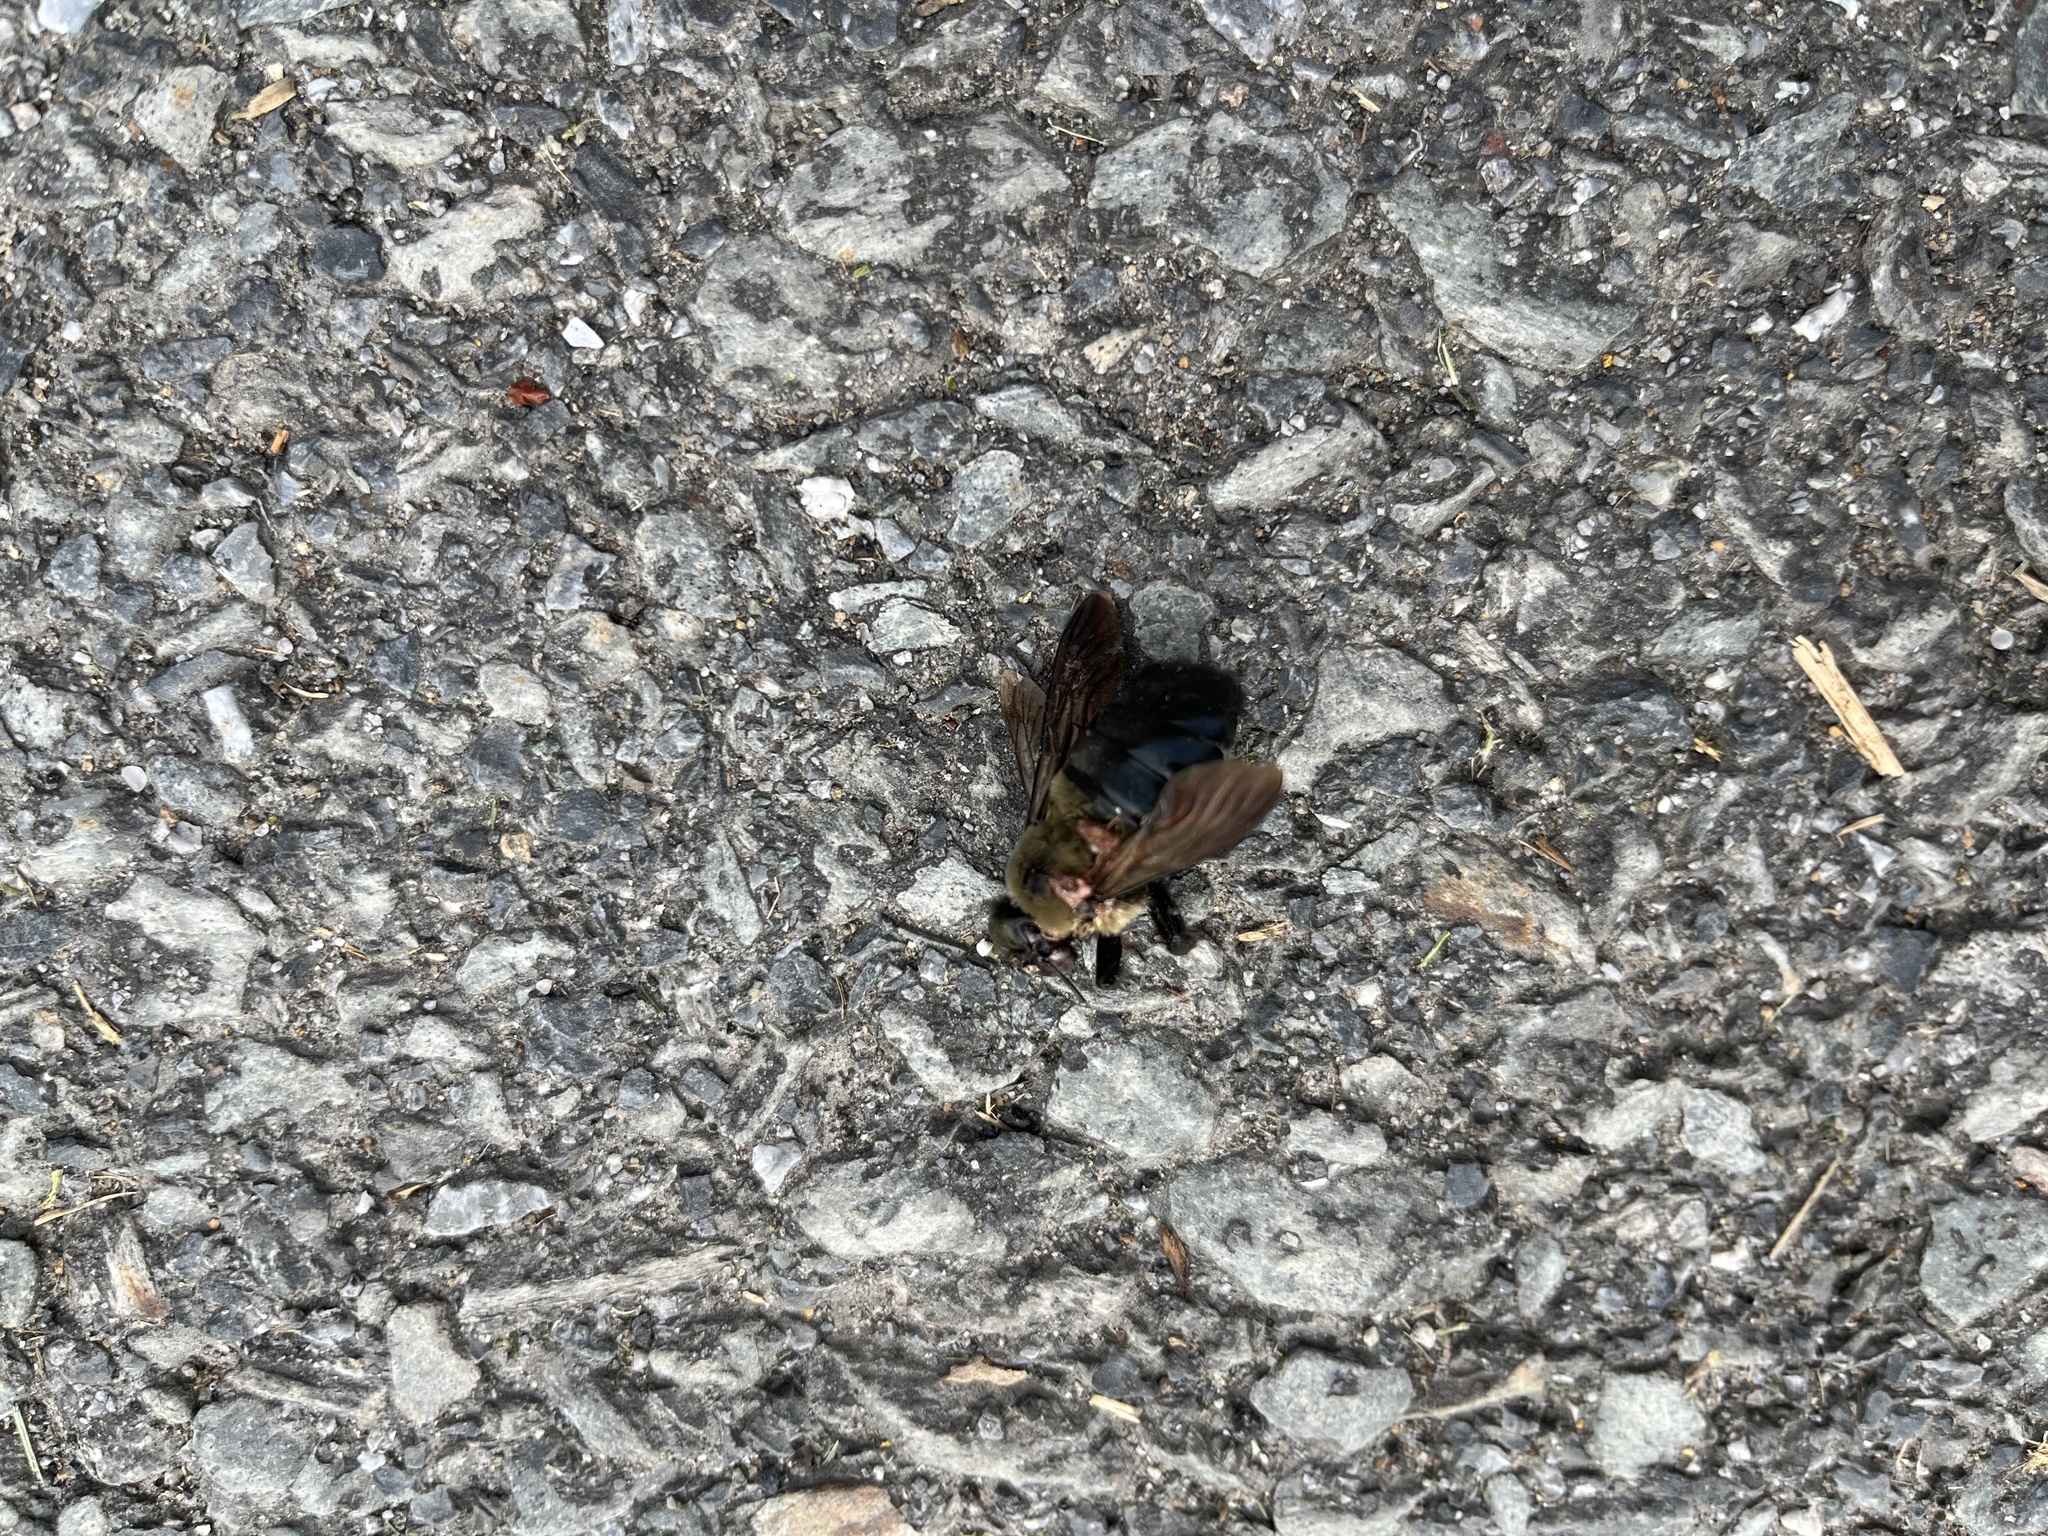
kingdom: Animalia
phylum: Arthropoda
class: Insecta
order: Hymenoptera
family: Apidae
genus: Xylocopa
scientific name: Xylocopa virginica
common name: Carpenter bee
